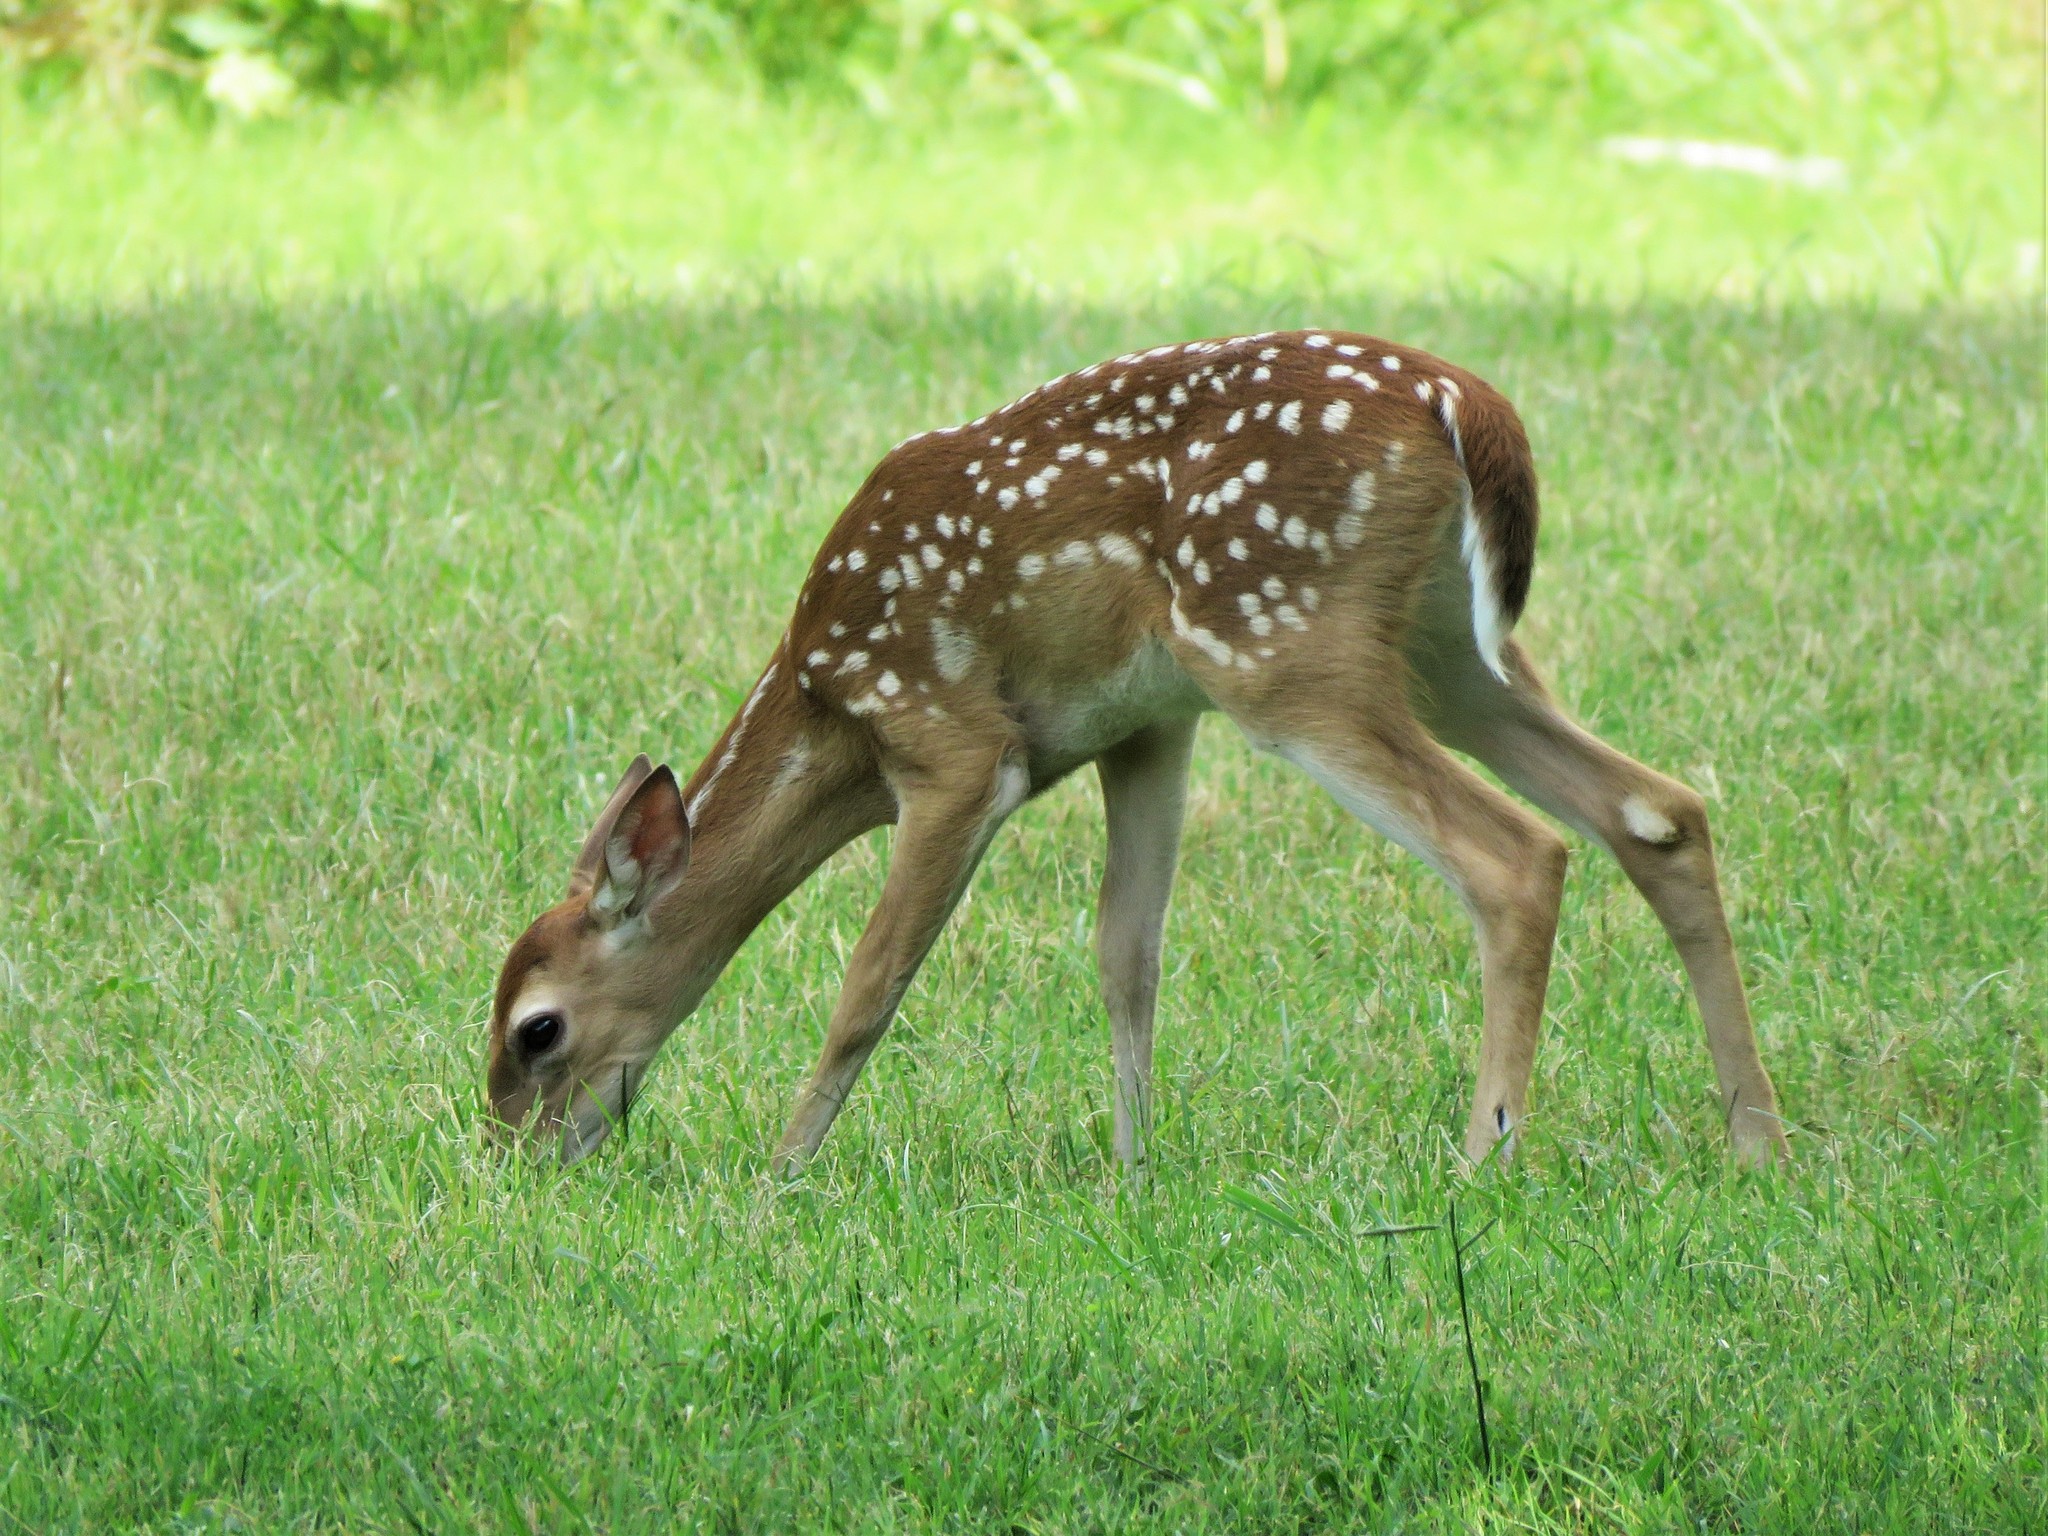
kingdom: Animalia
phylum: Chordata
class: Mammalia
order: Artiodactyla
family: Cervidae
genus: Odocoileus
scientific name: Odocoileus virginianus
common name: White-tailed deer
